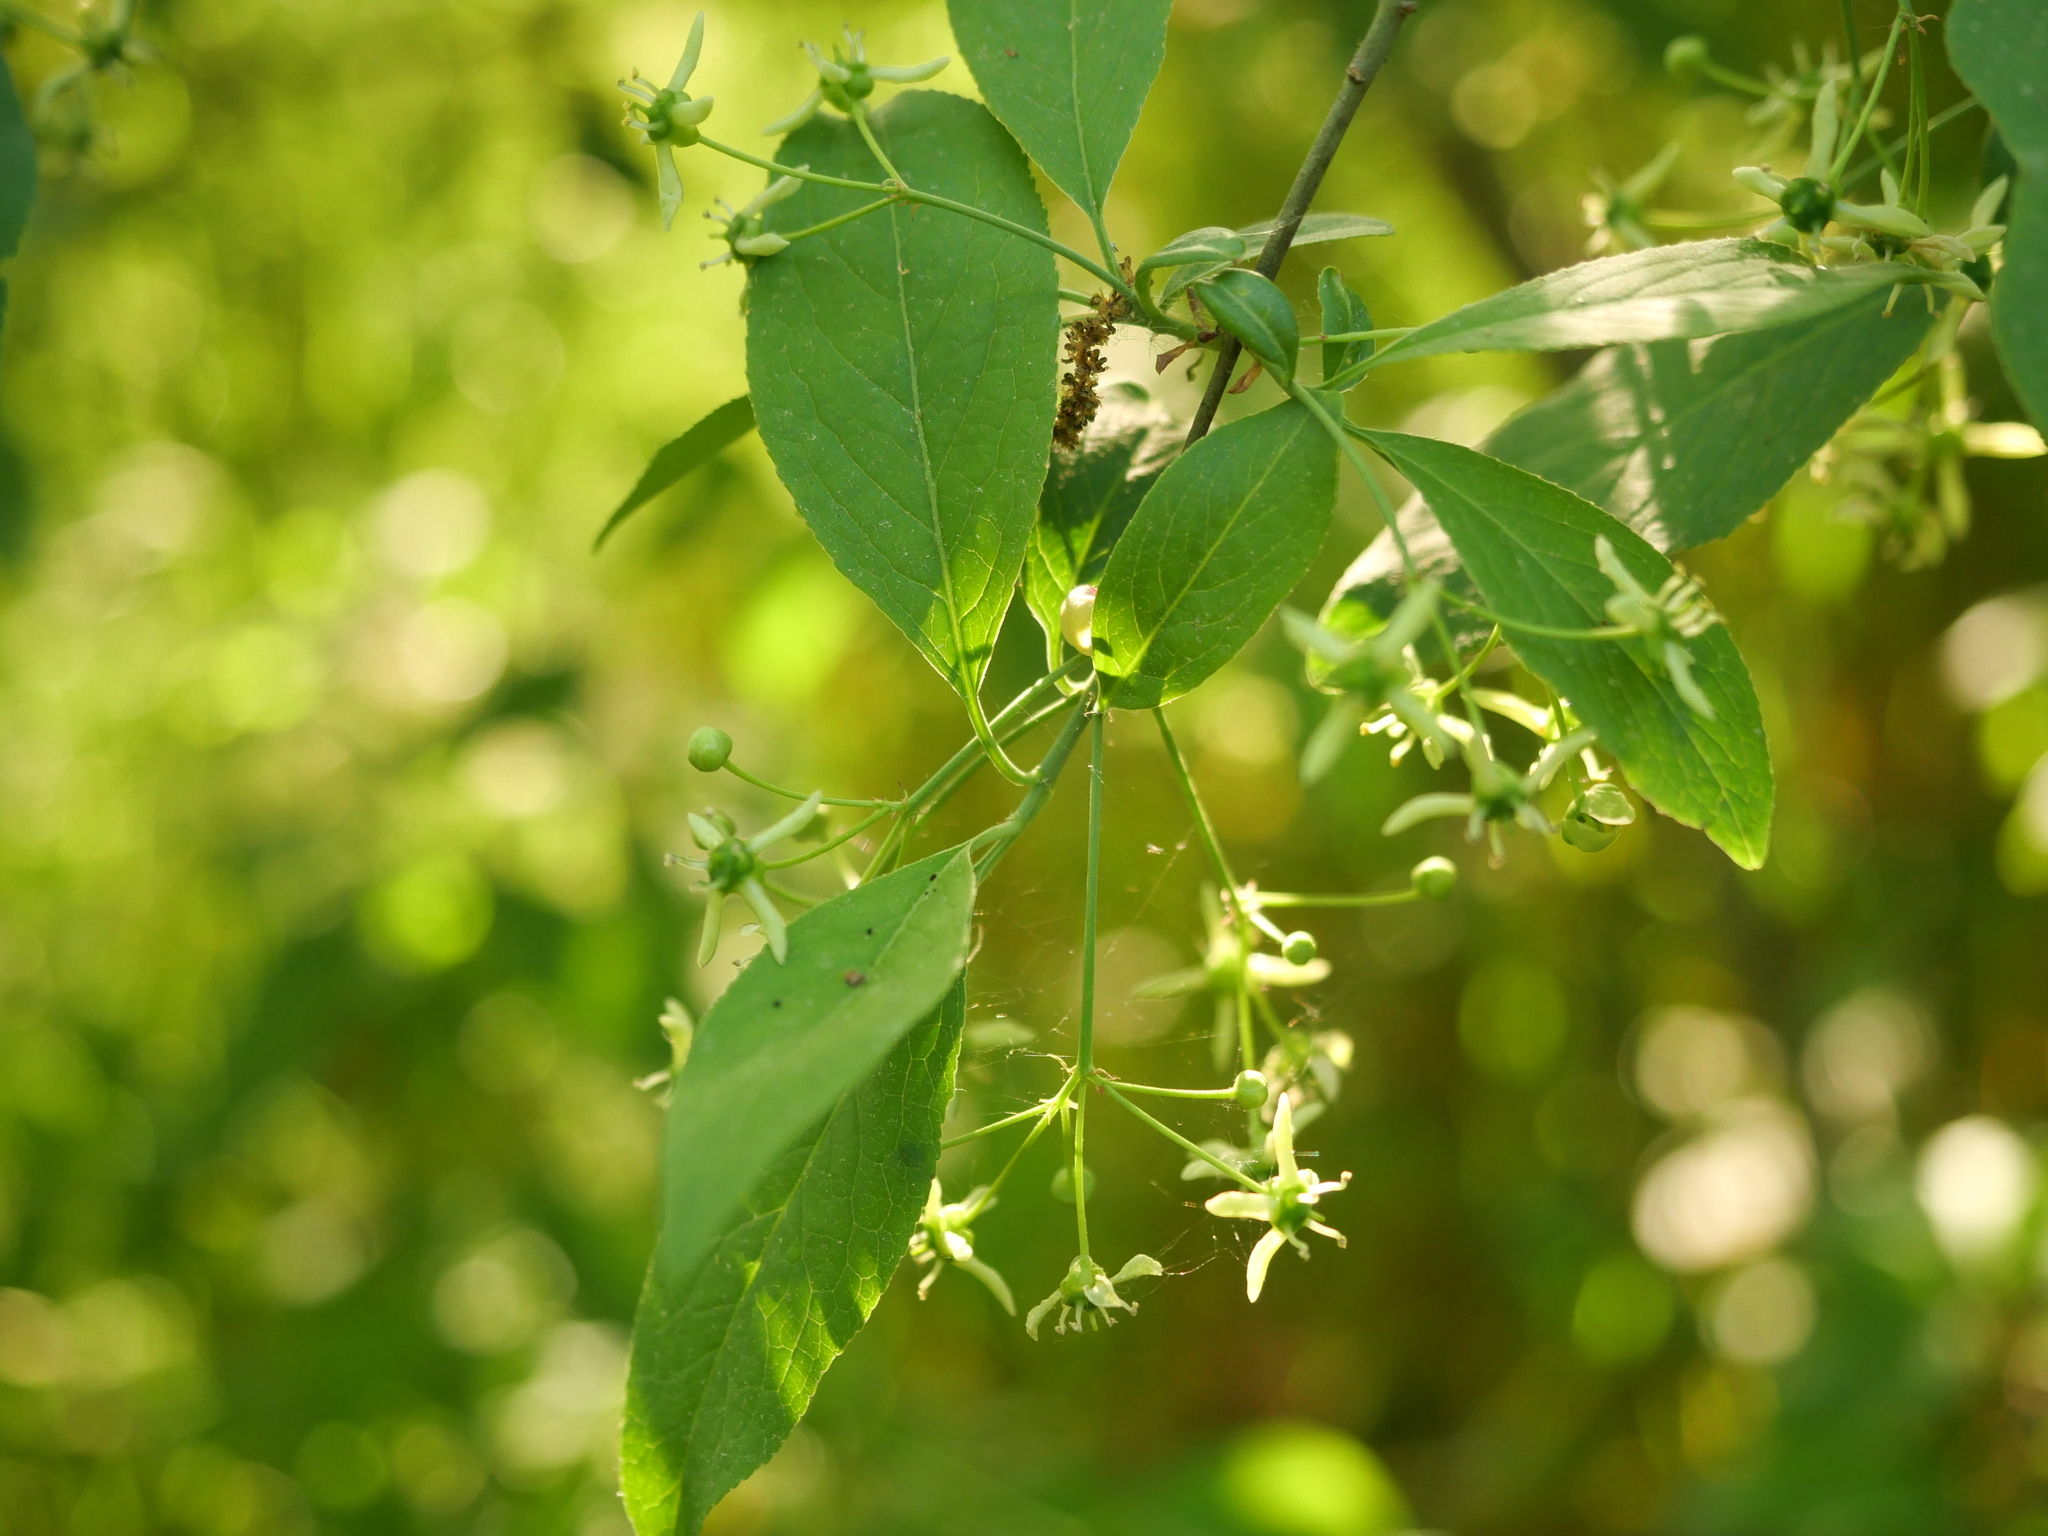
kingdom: Plantae
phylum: Tracheophyta
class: Magnoliopsida
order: Celastrales
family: Celastraceae
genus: Euonymus
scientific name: Euonymus europaeus
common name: Spindle
